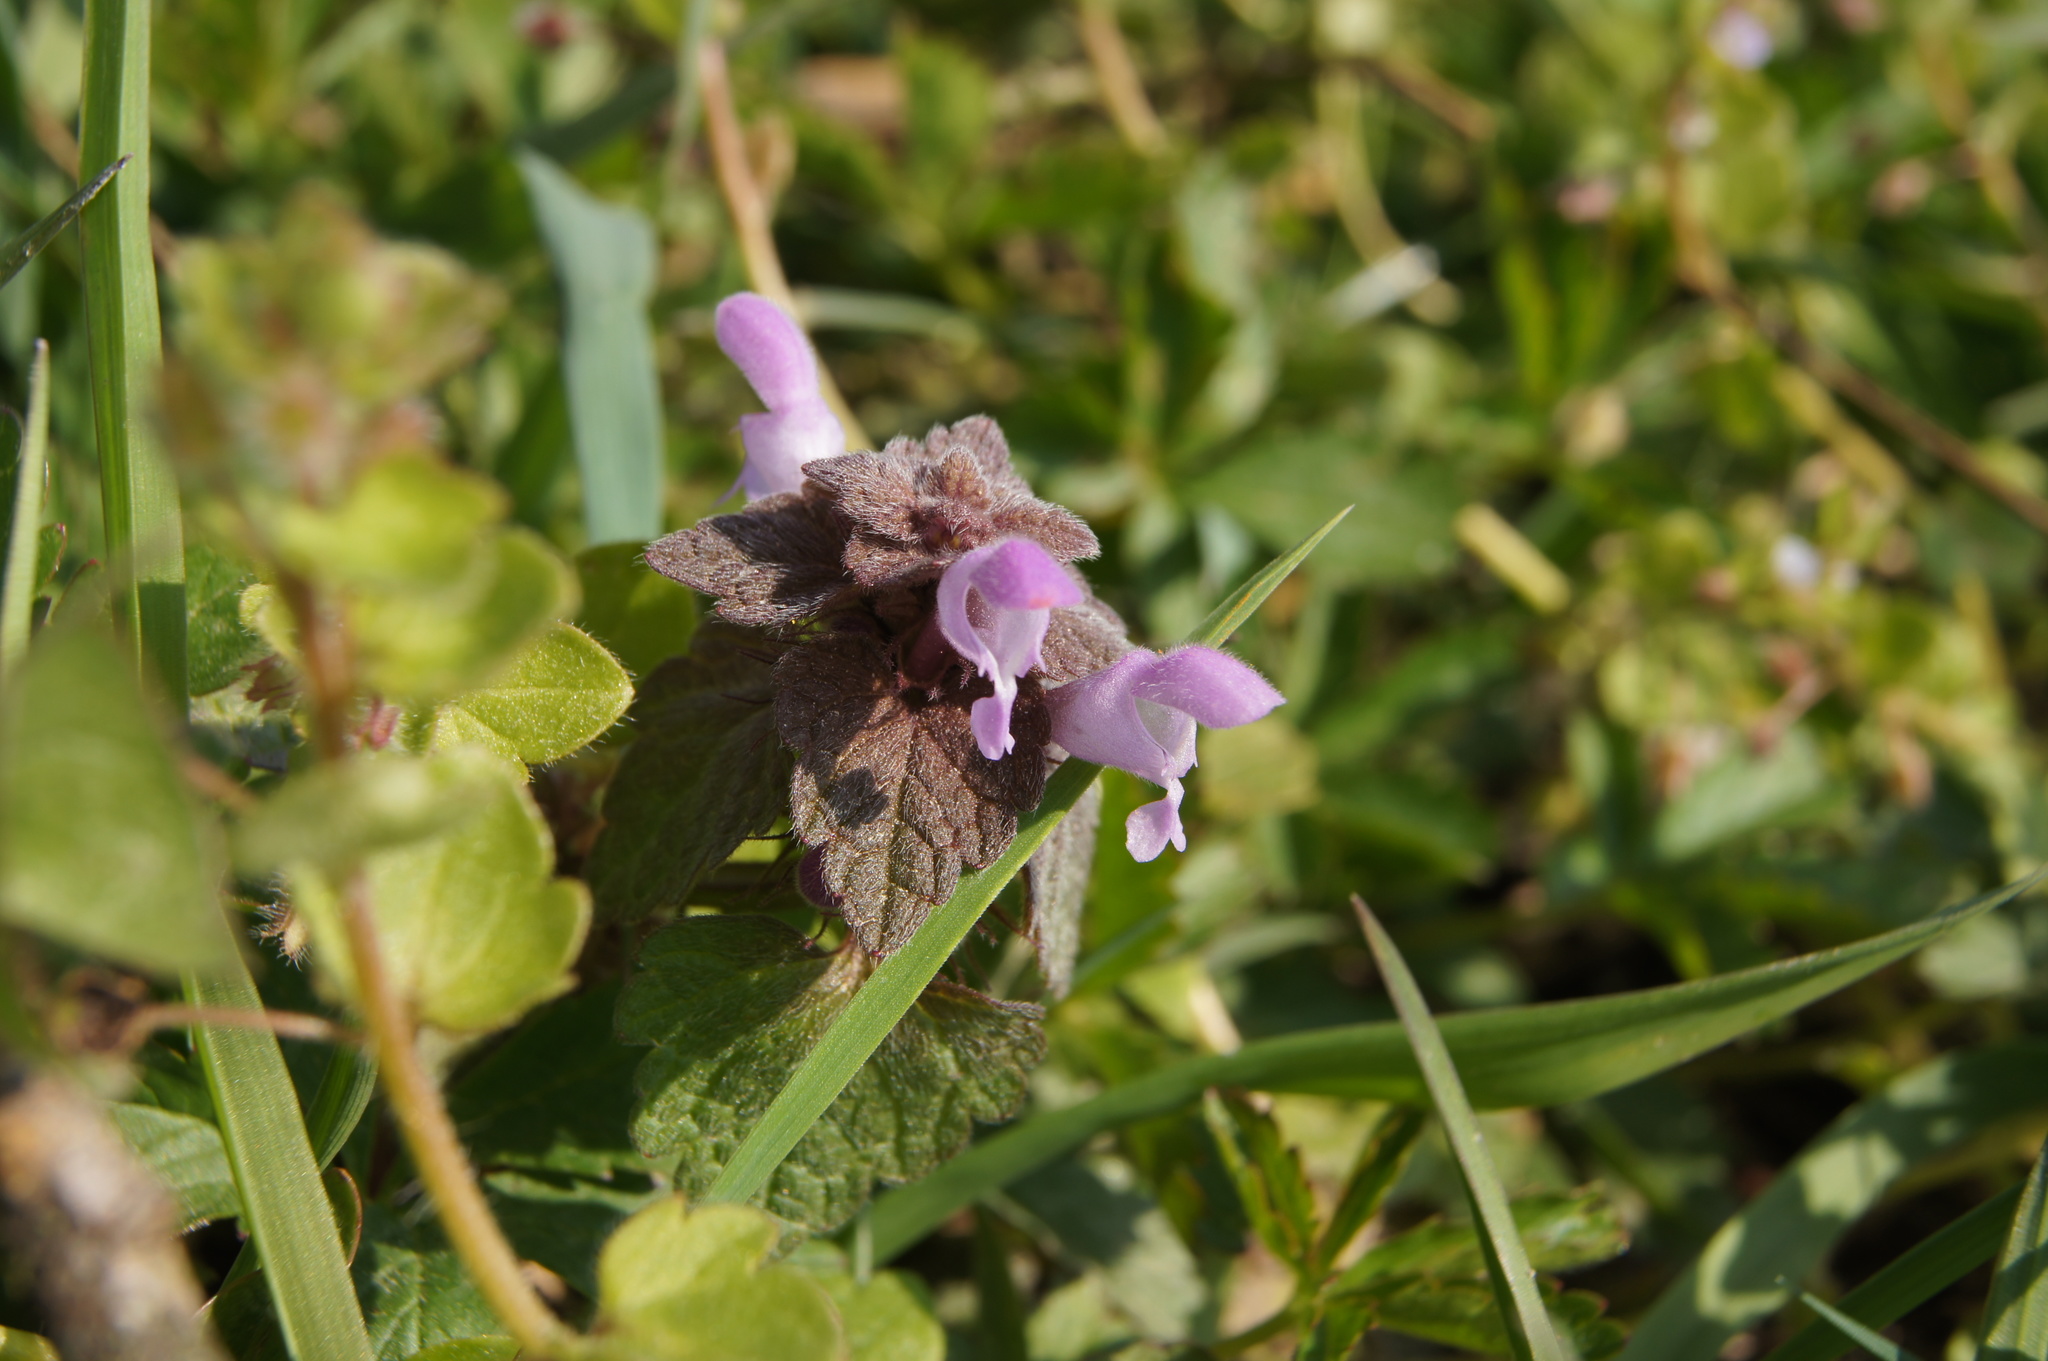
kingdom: Plantae
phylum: Tracheophyta
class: Magnoliopsida
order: Lamiales
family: Lamiaceae
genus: Lamium
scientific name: Lamium purpureum
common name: Red dead-nettle
